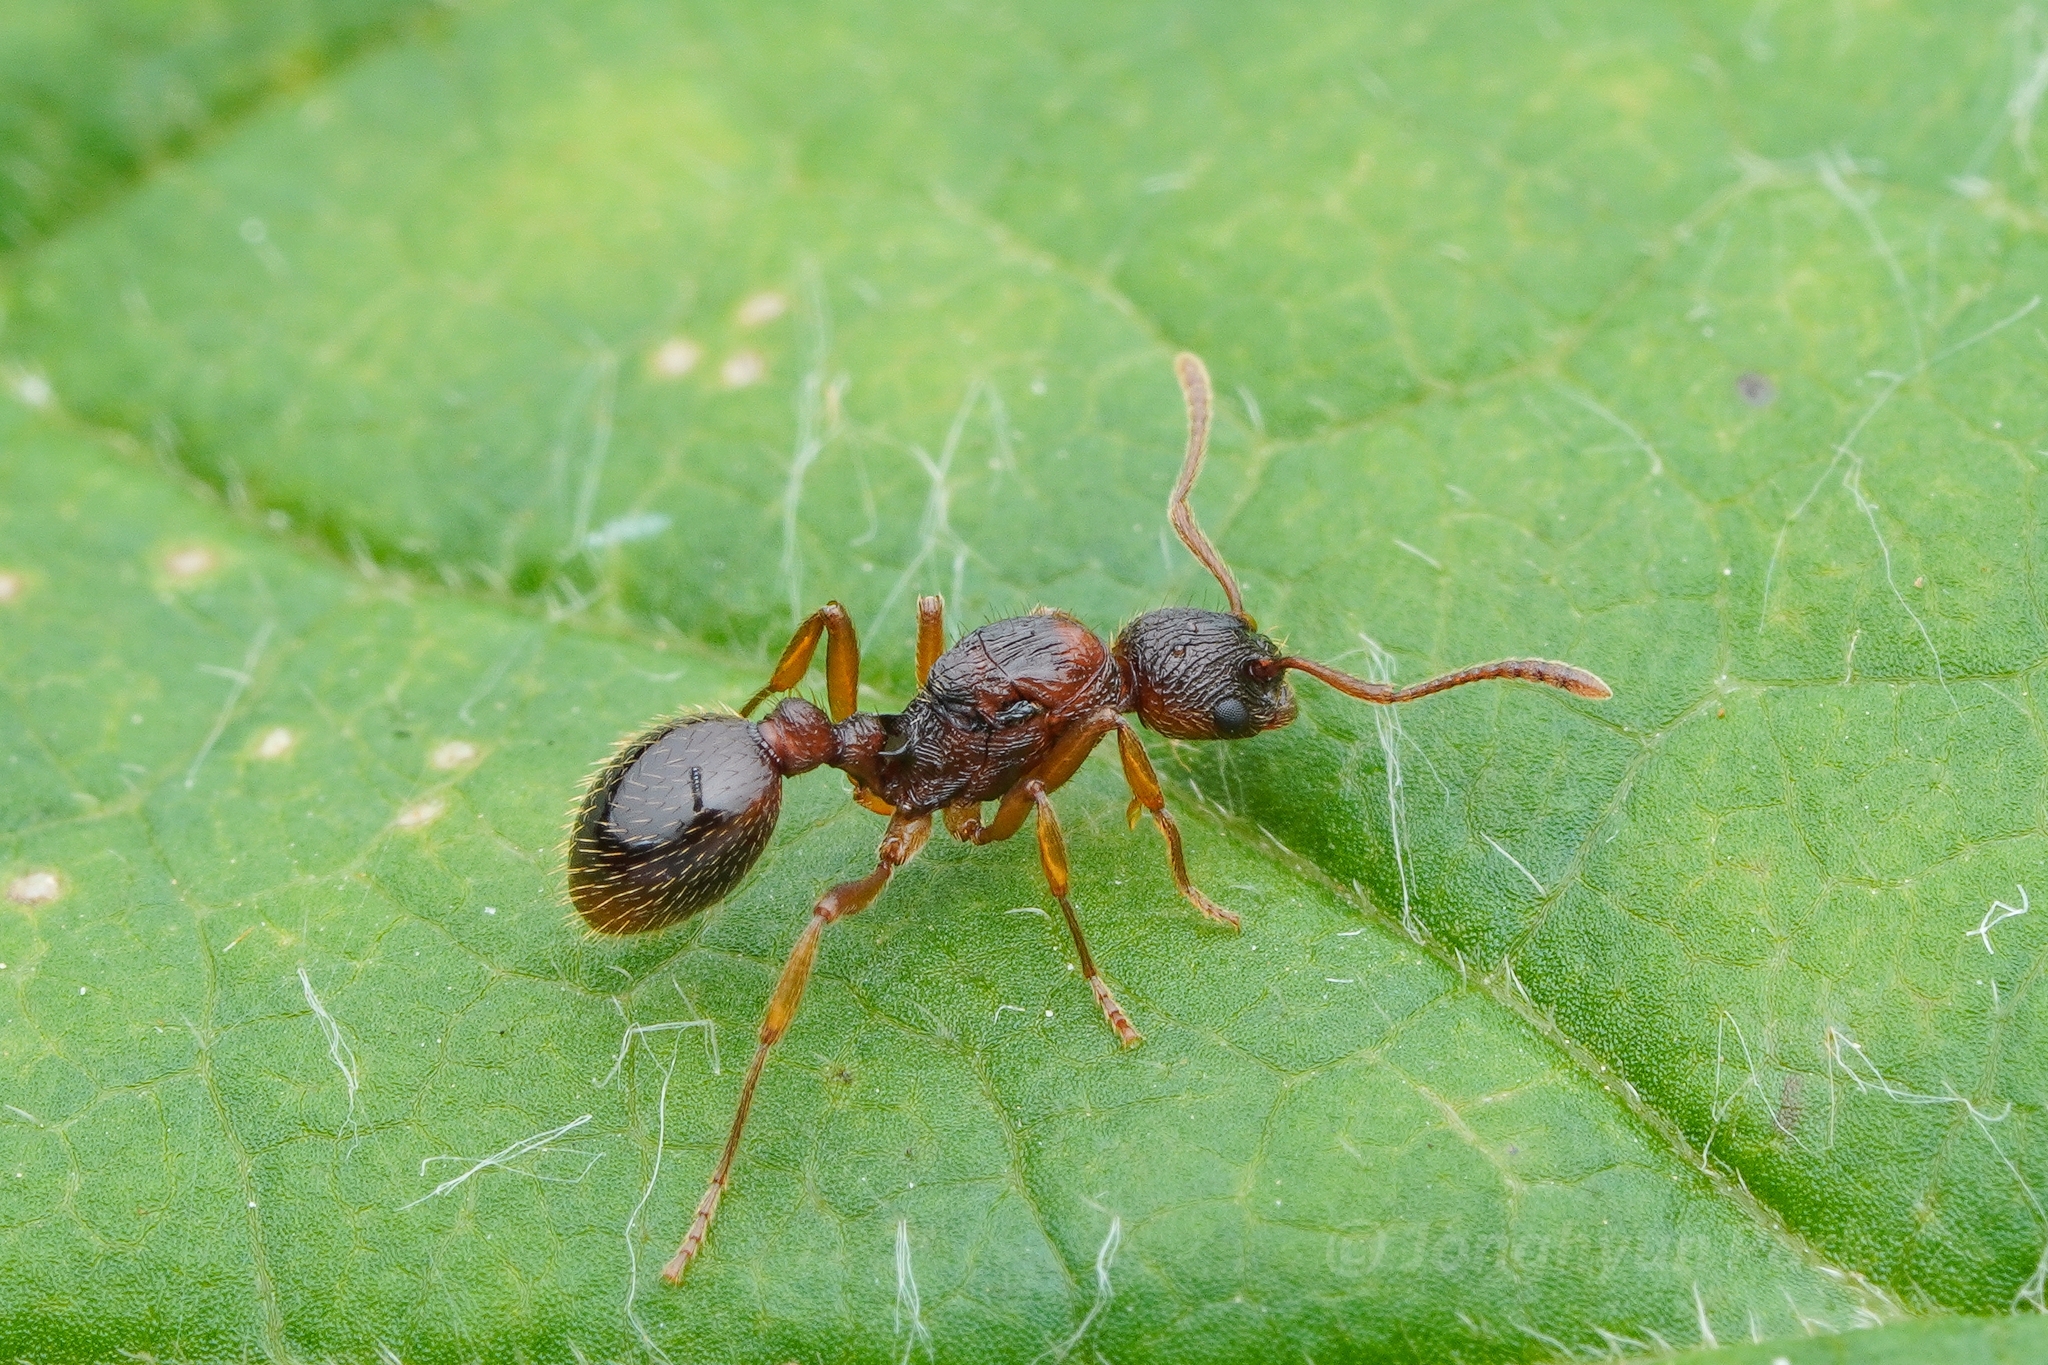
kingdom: Animalia
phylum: Arthropoda
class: Insecta
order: Hymenoptera
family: Formicidae
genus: Myrmica
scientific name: Myrmica kotokui
